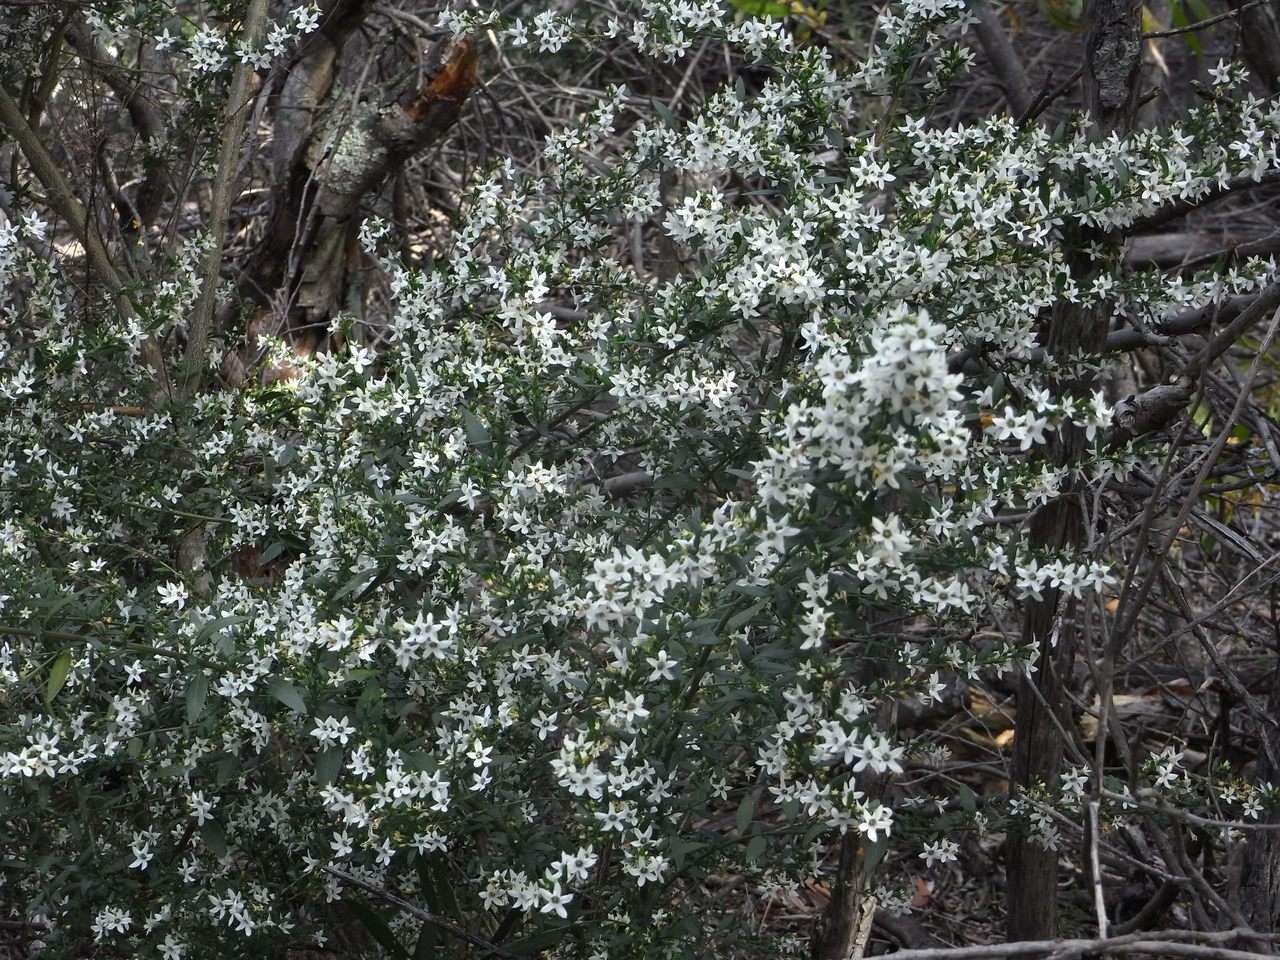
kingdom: Plantae
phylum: Tracheophyta
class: Magnoliopsida
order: Solanales
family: Solanaceae
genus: Cyphanthera
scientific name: Cyphanthera anthocercidea
